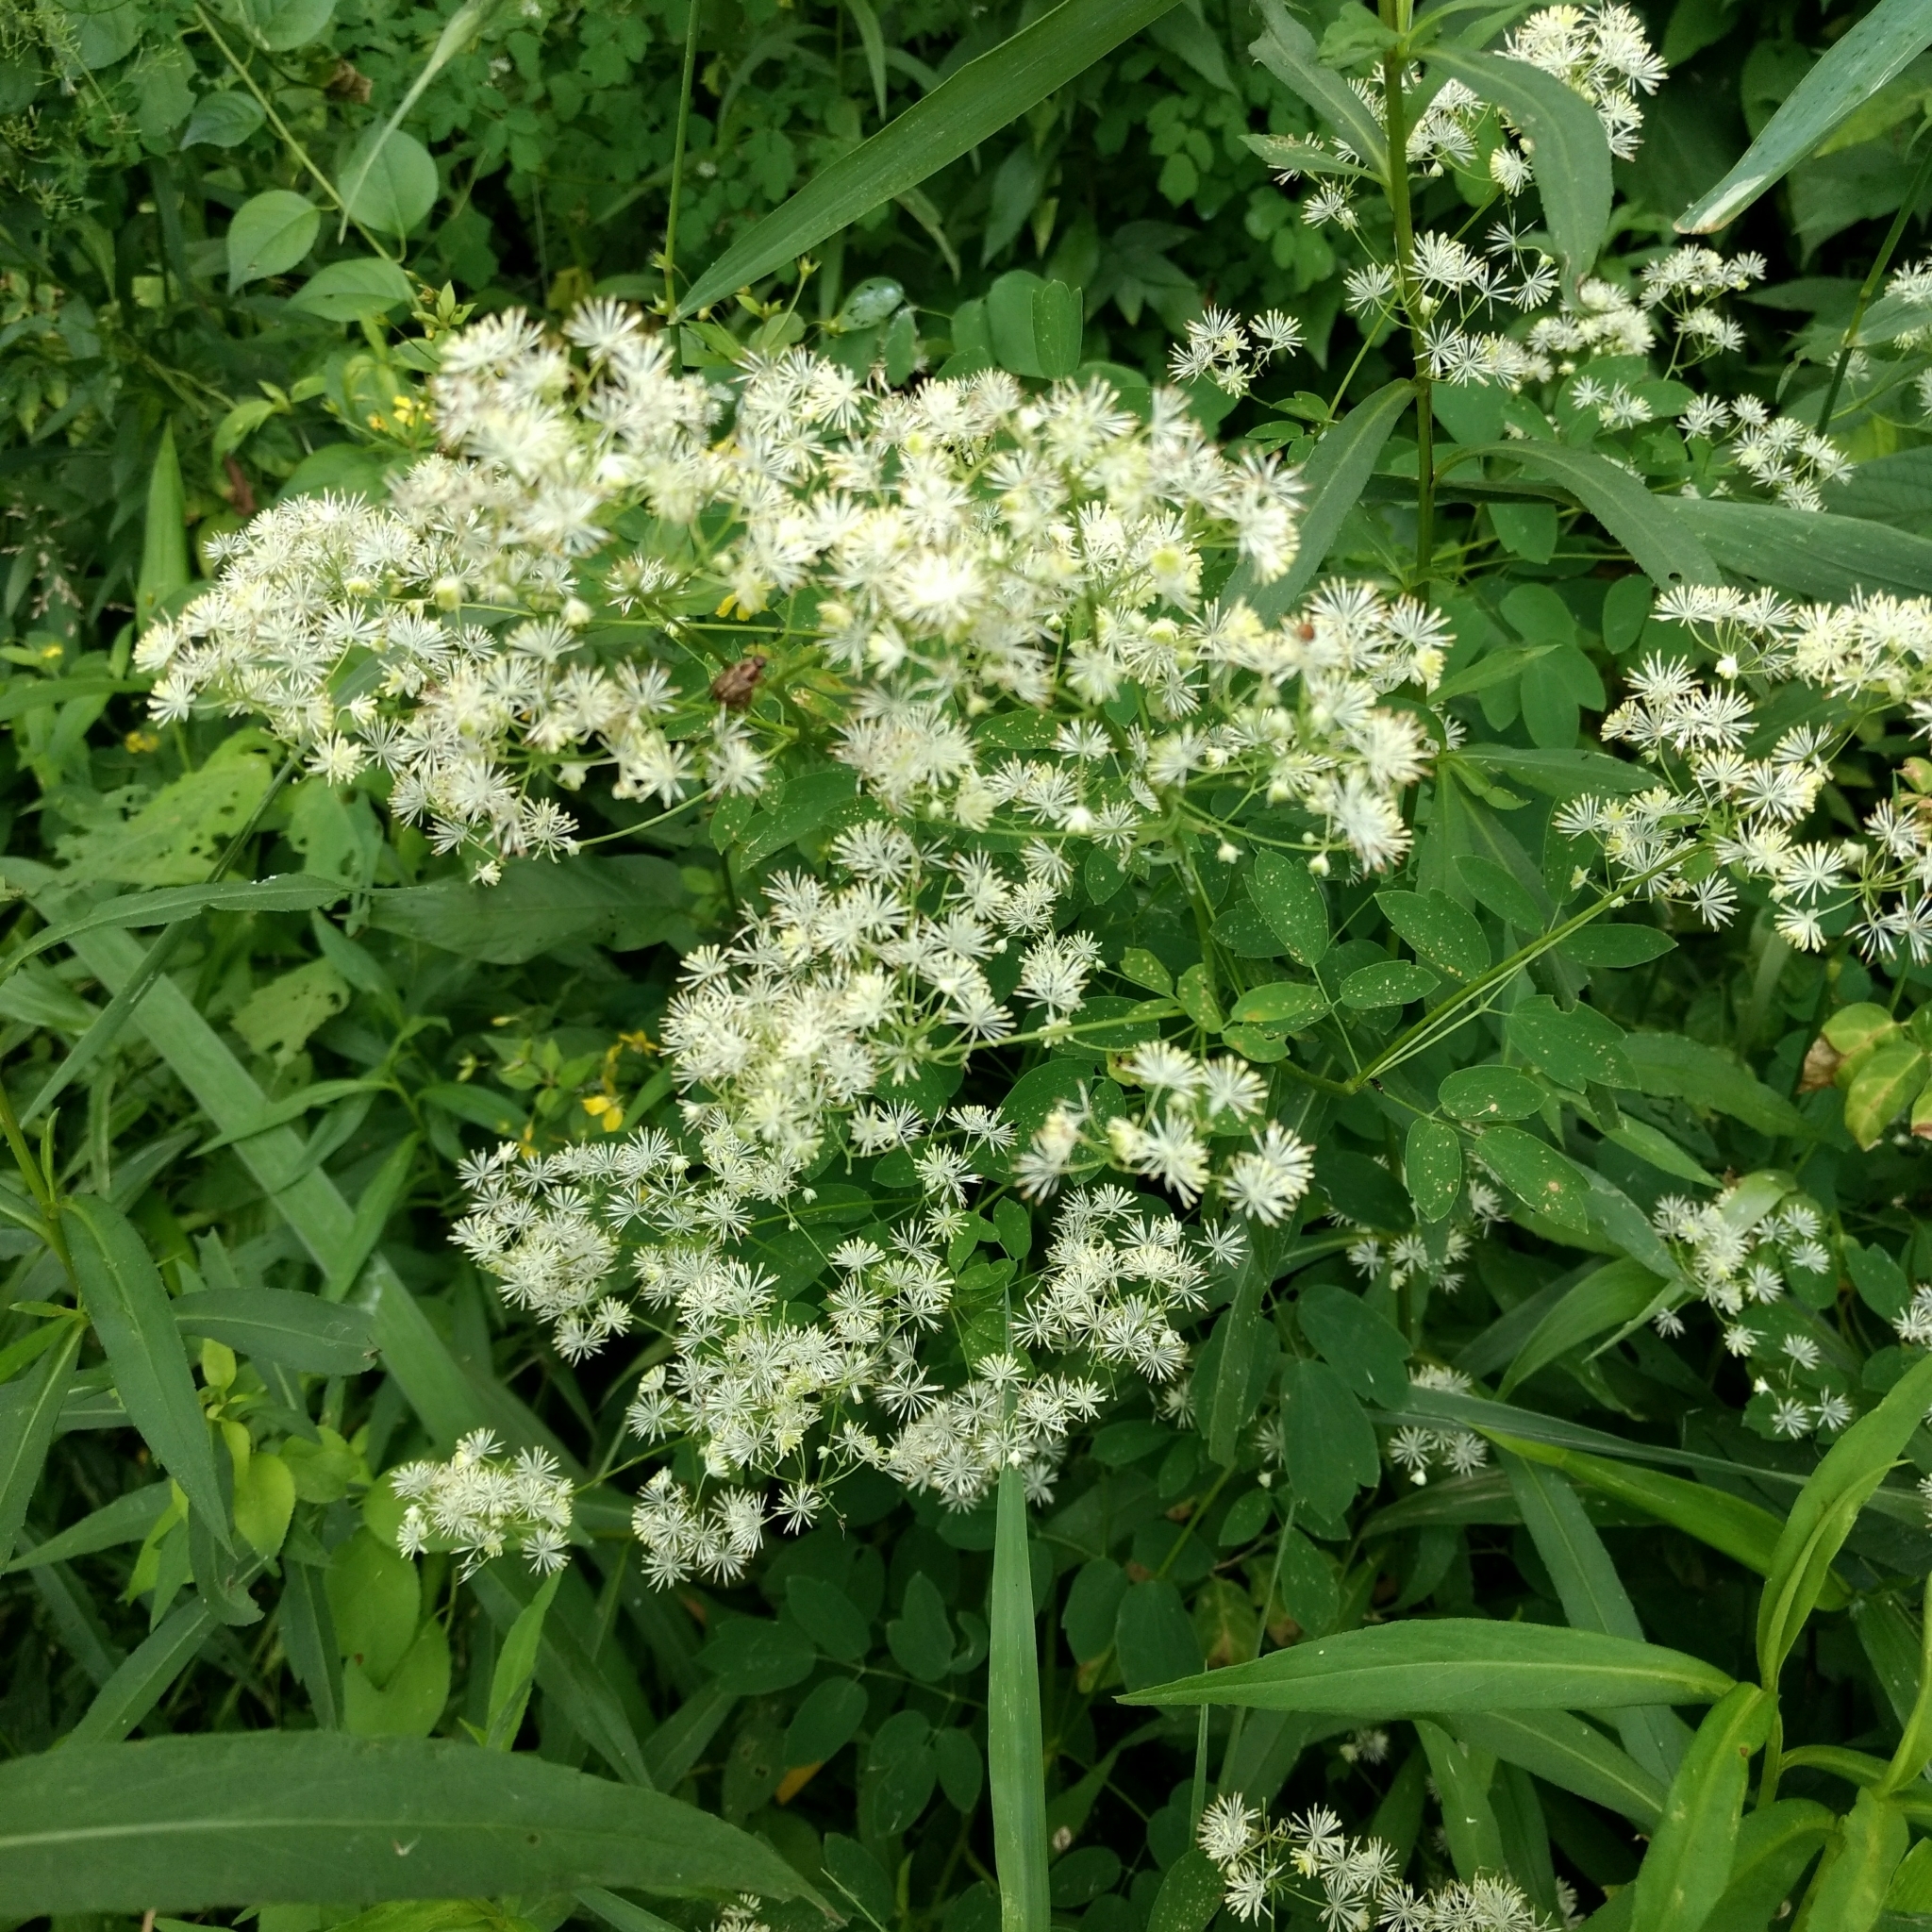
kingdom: Plantae
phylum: Tracheophyta
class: Magnoliopsida
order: Ranunculales
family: Ranunculaceae
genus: Thalictrum
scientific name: Thalictrum pubescens
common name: King-of-the-meadow
